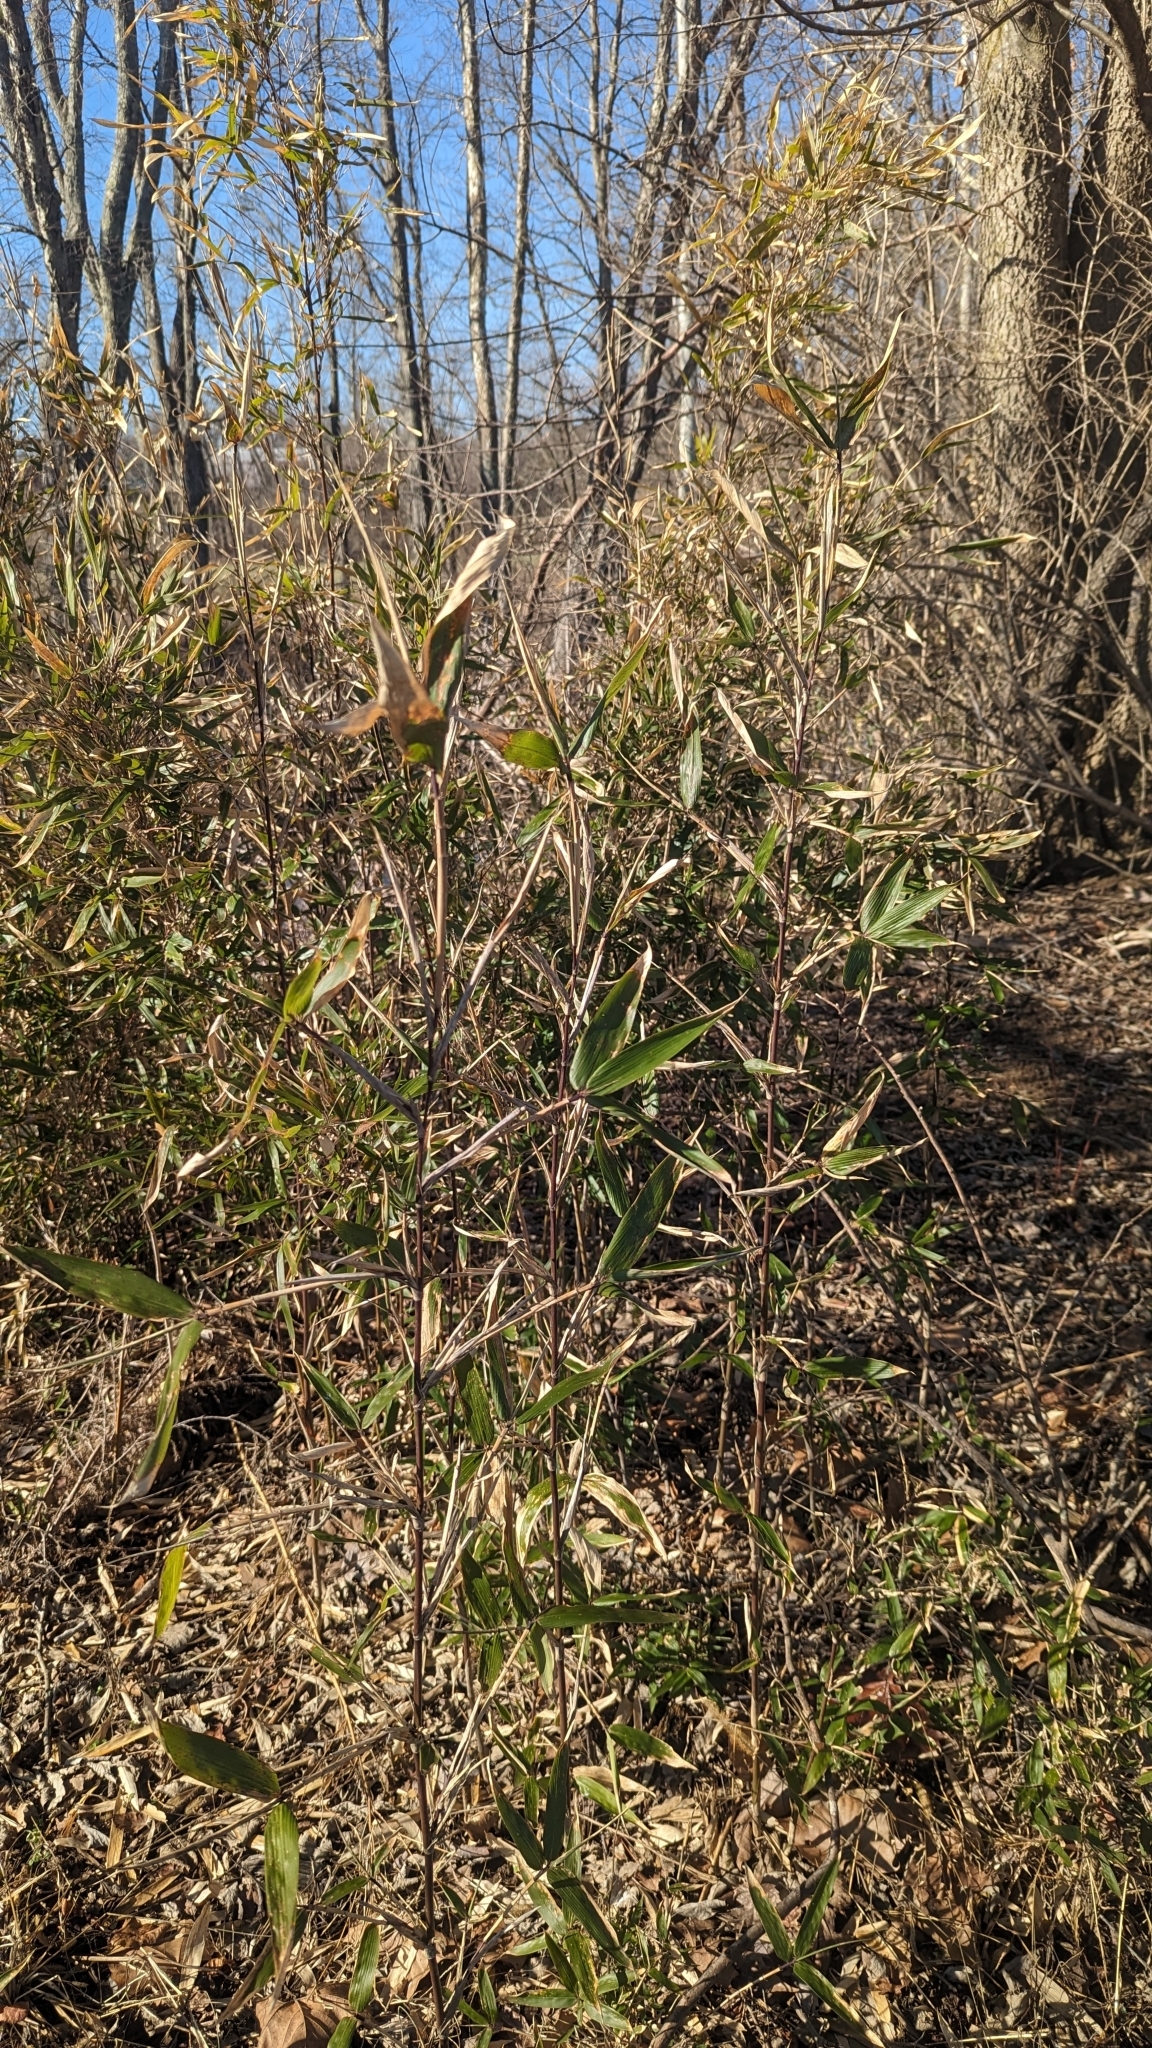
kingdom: Plantae
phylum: Tracheophyta
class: Liliopsida
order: Poales
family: Poaceae
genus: Arundinaria
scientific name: Arundinaria gigantea
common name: Giant cane
